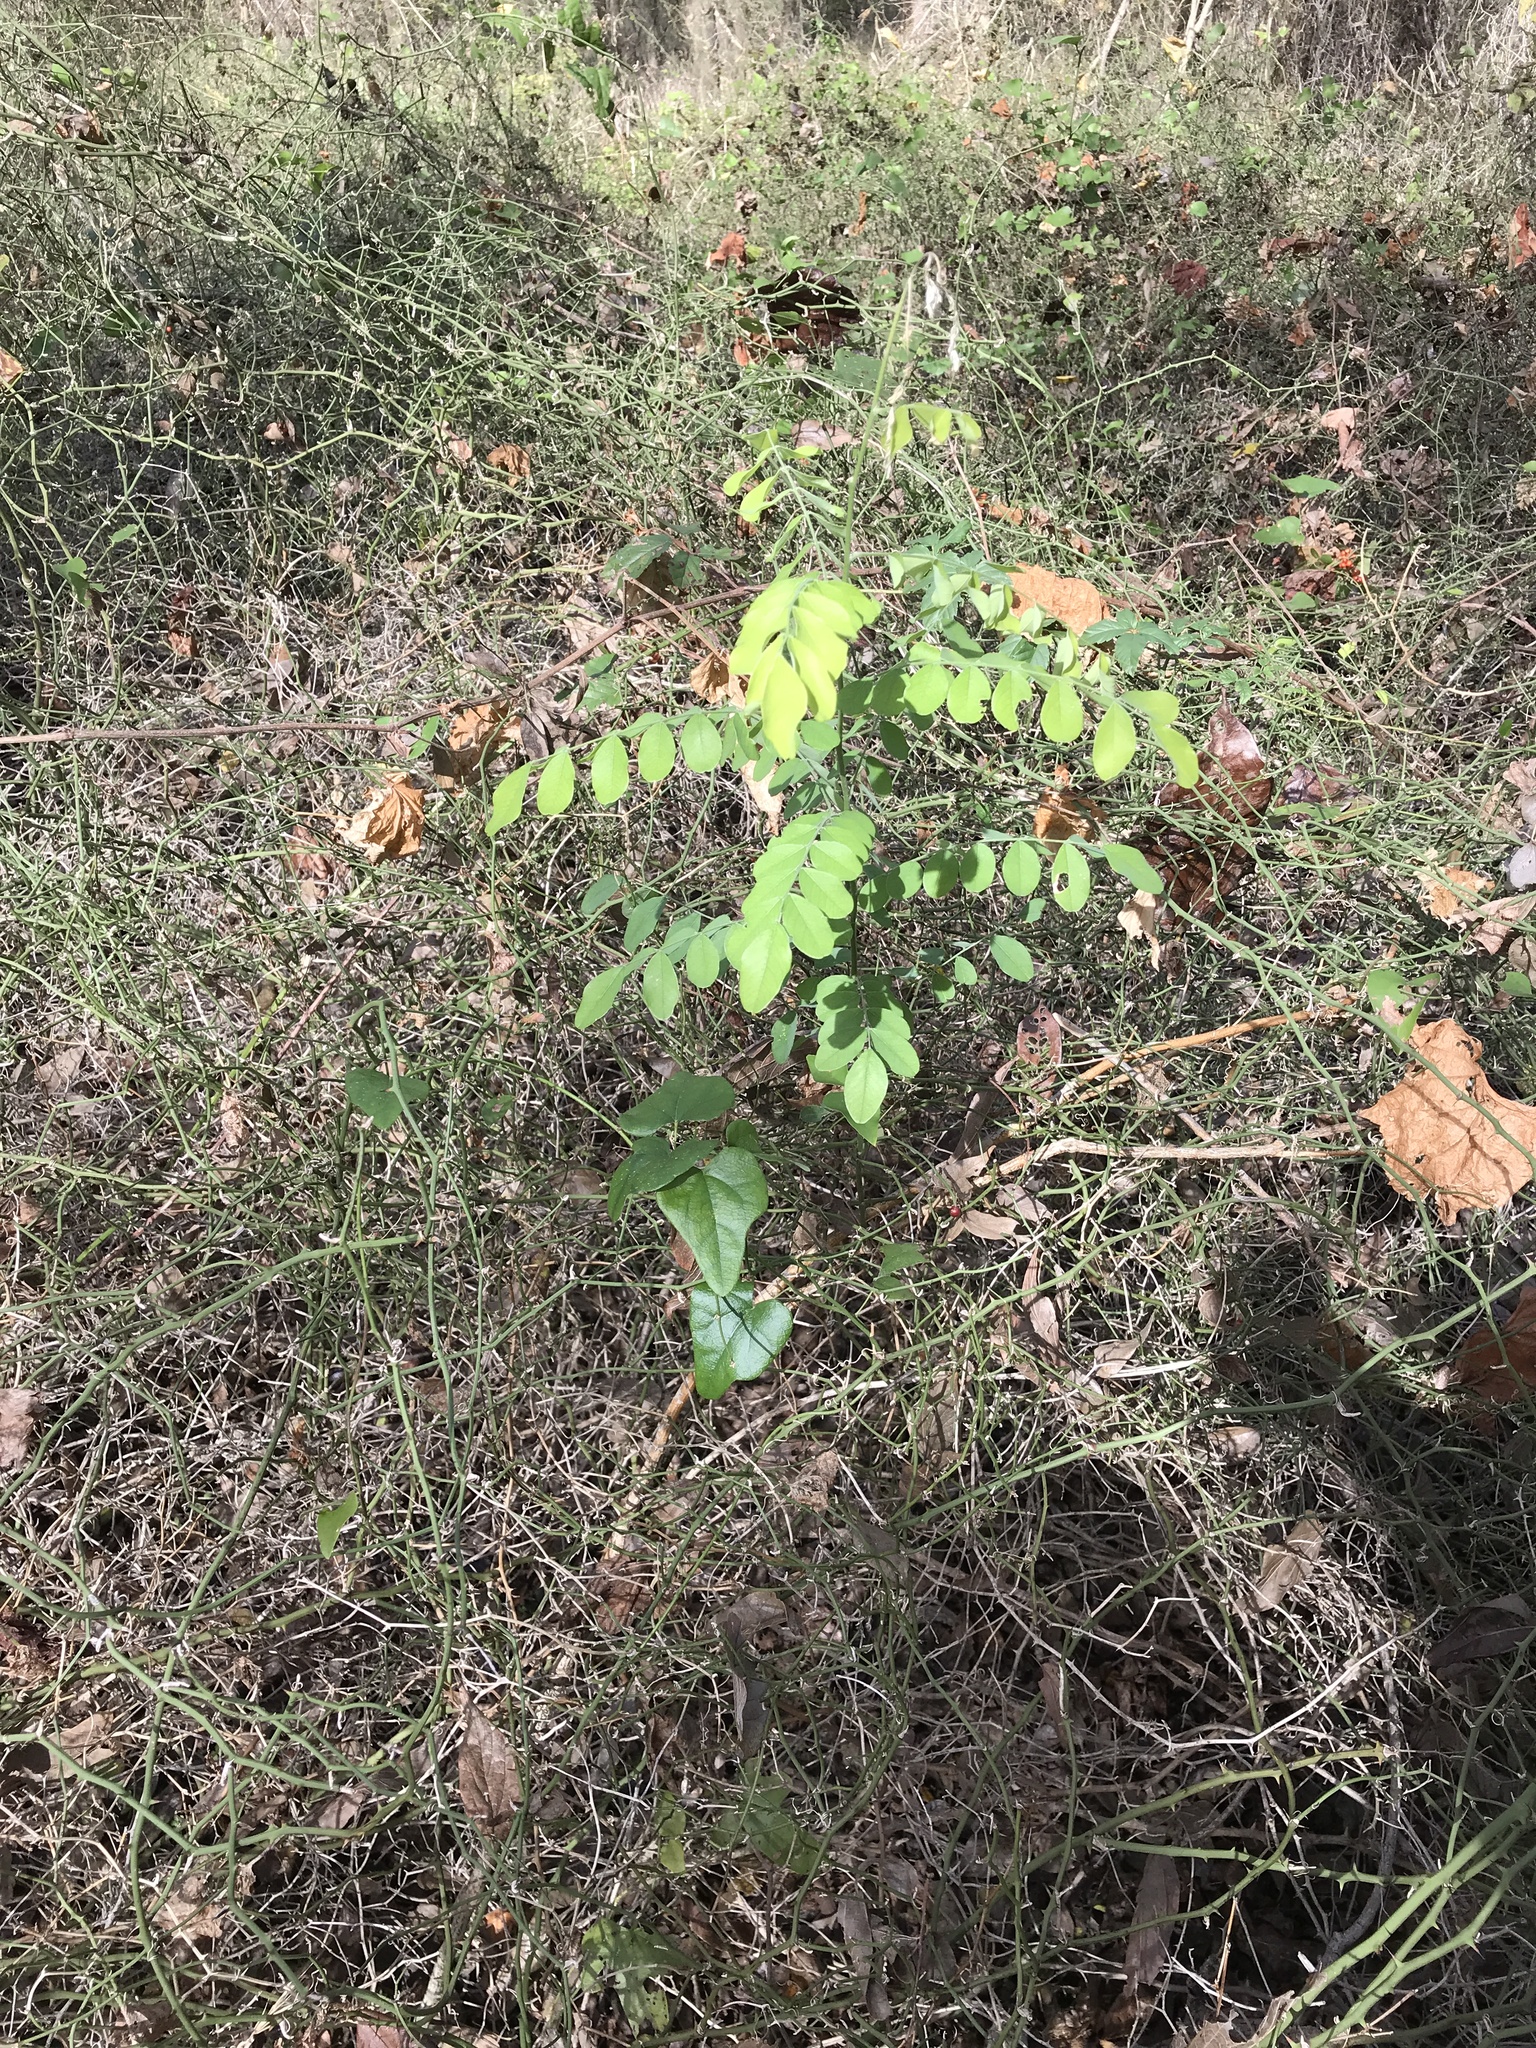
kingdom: Plantae
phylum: Tracheophyta
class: Magnoliopsida
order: Fabales
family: Fabaceae
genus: Styphnolobium
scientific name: Styphnolobium affine
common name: Texas sophora
